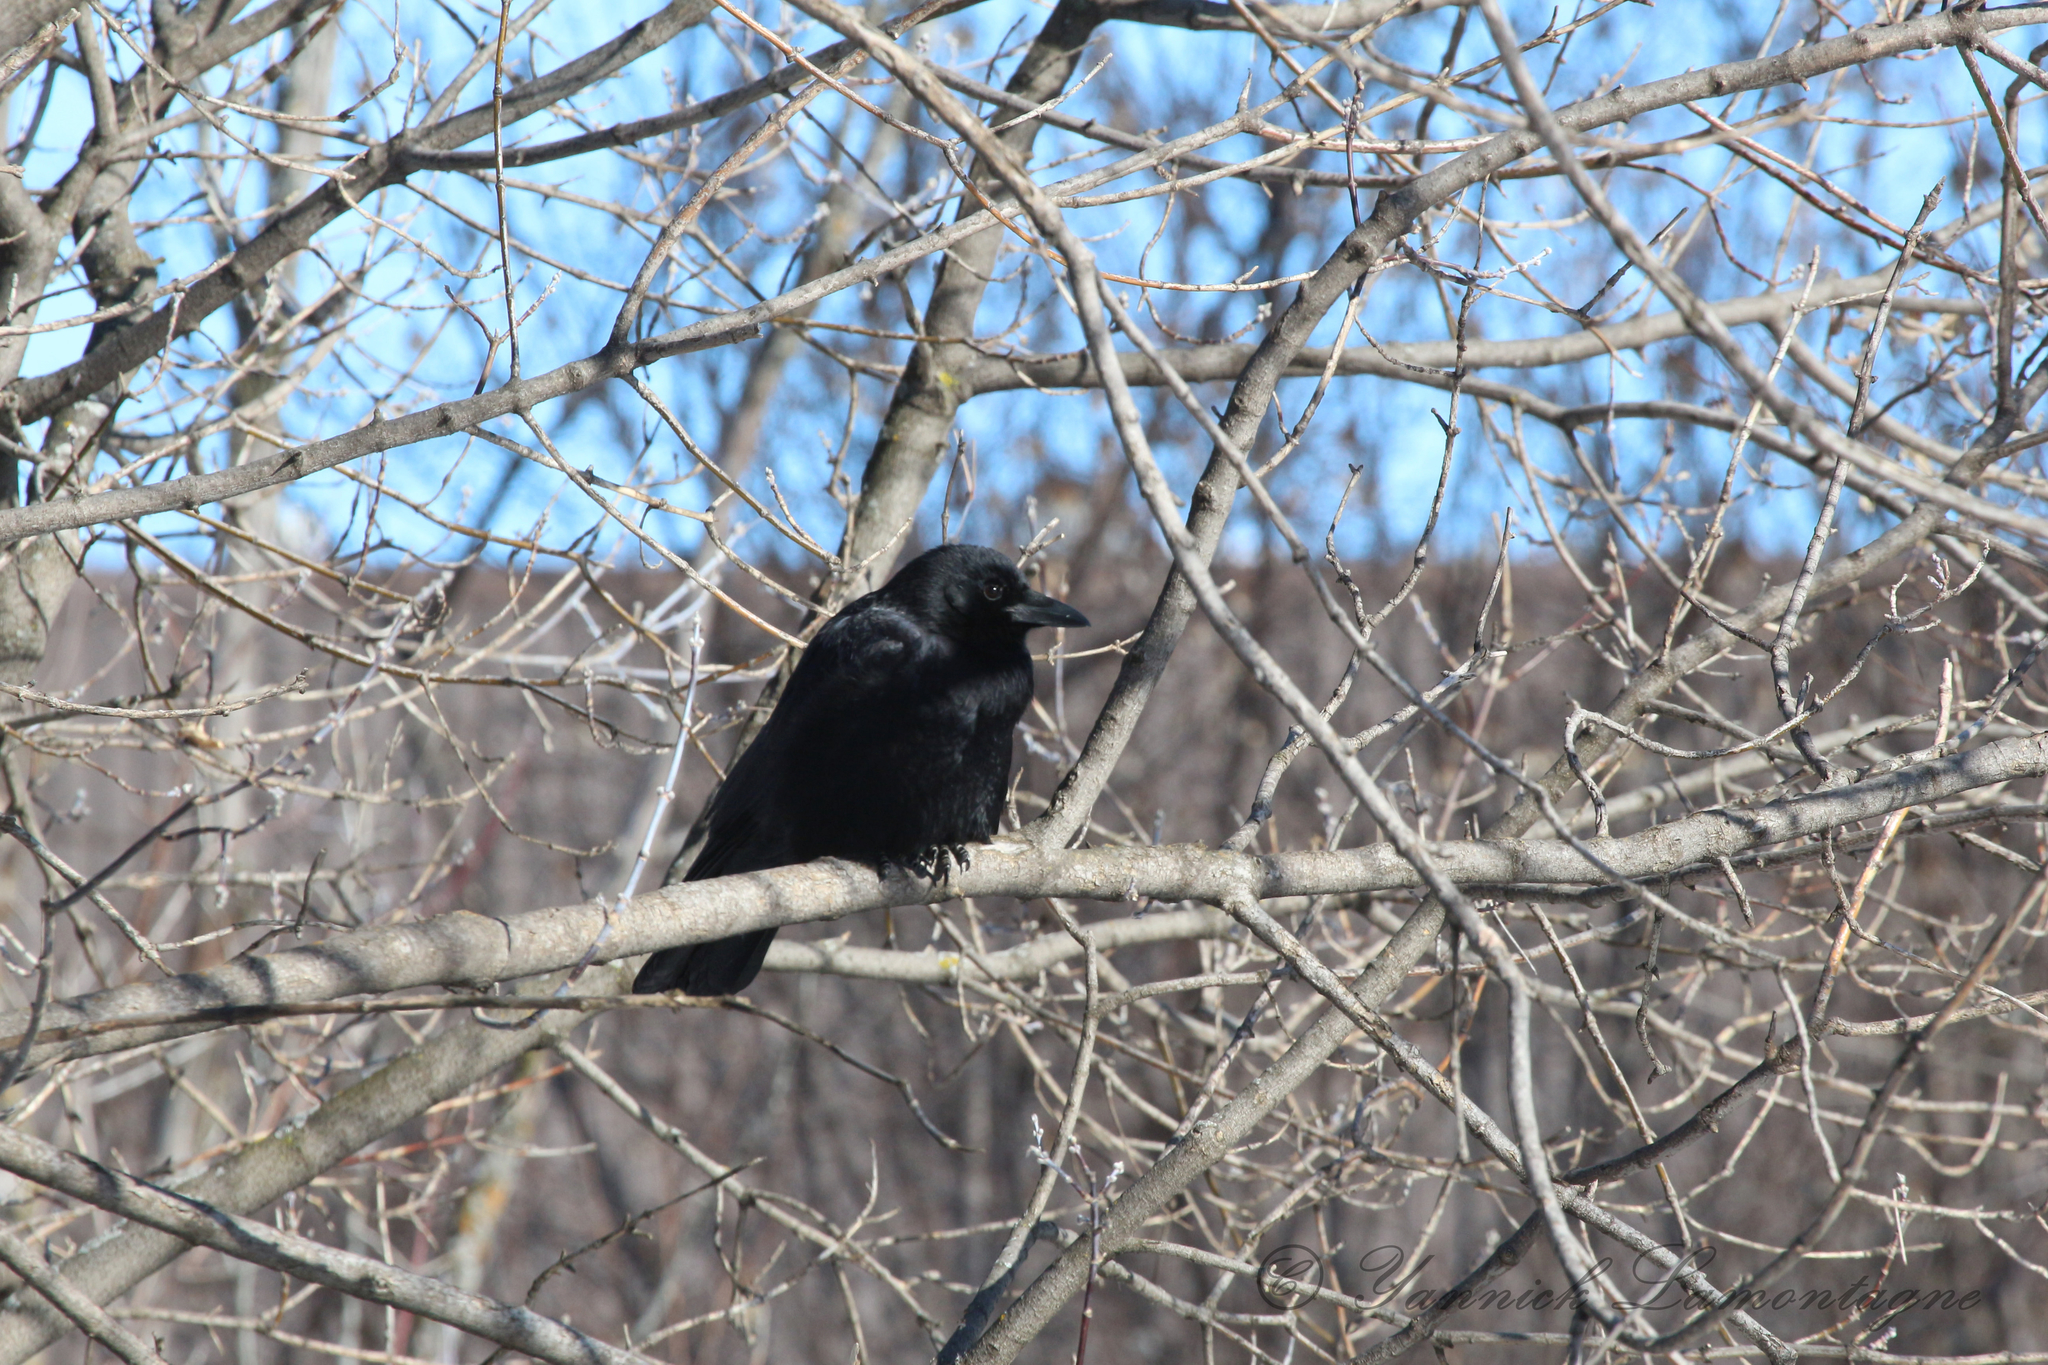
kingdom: Animalia
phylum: Chordata
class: Aves
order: Passeriformes
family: Corvidae
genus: Corvus
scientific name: Corvus brachyrhynchos
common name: American crow
